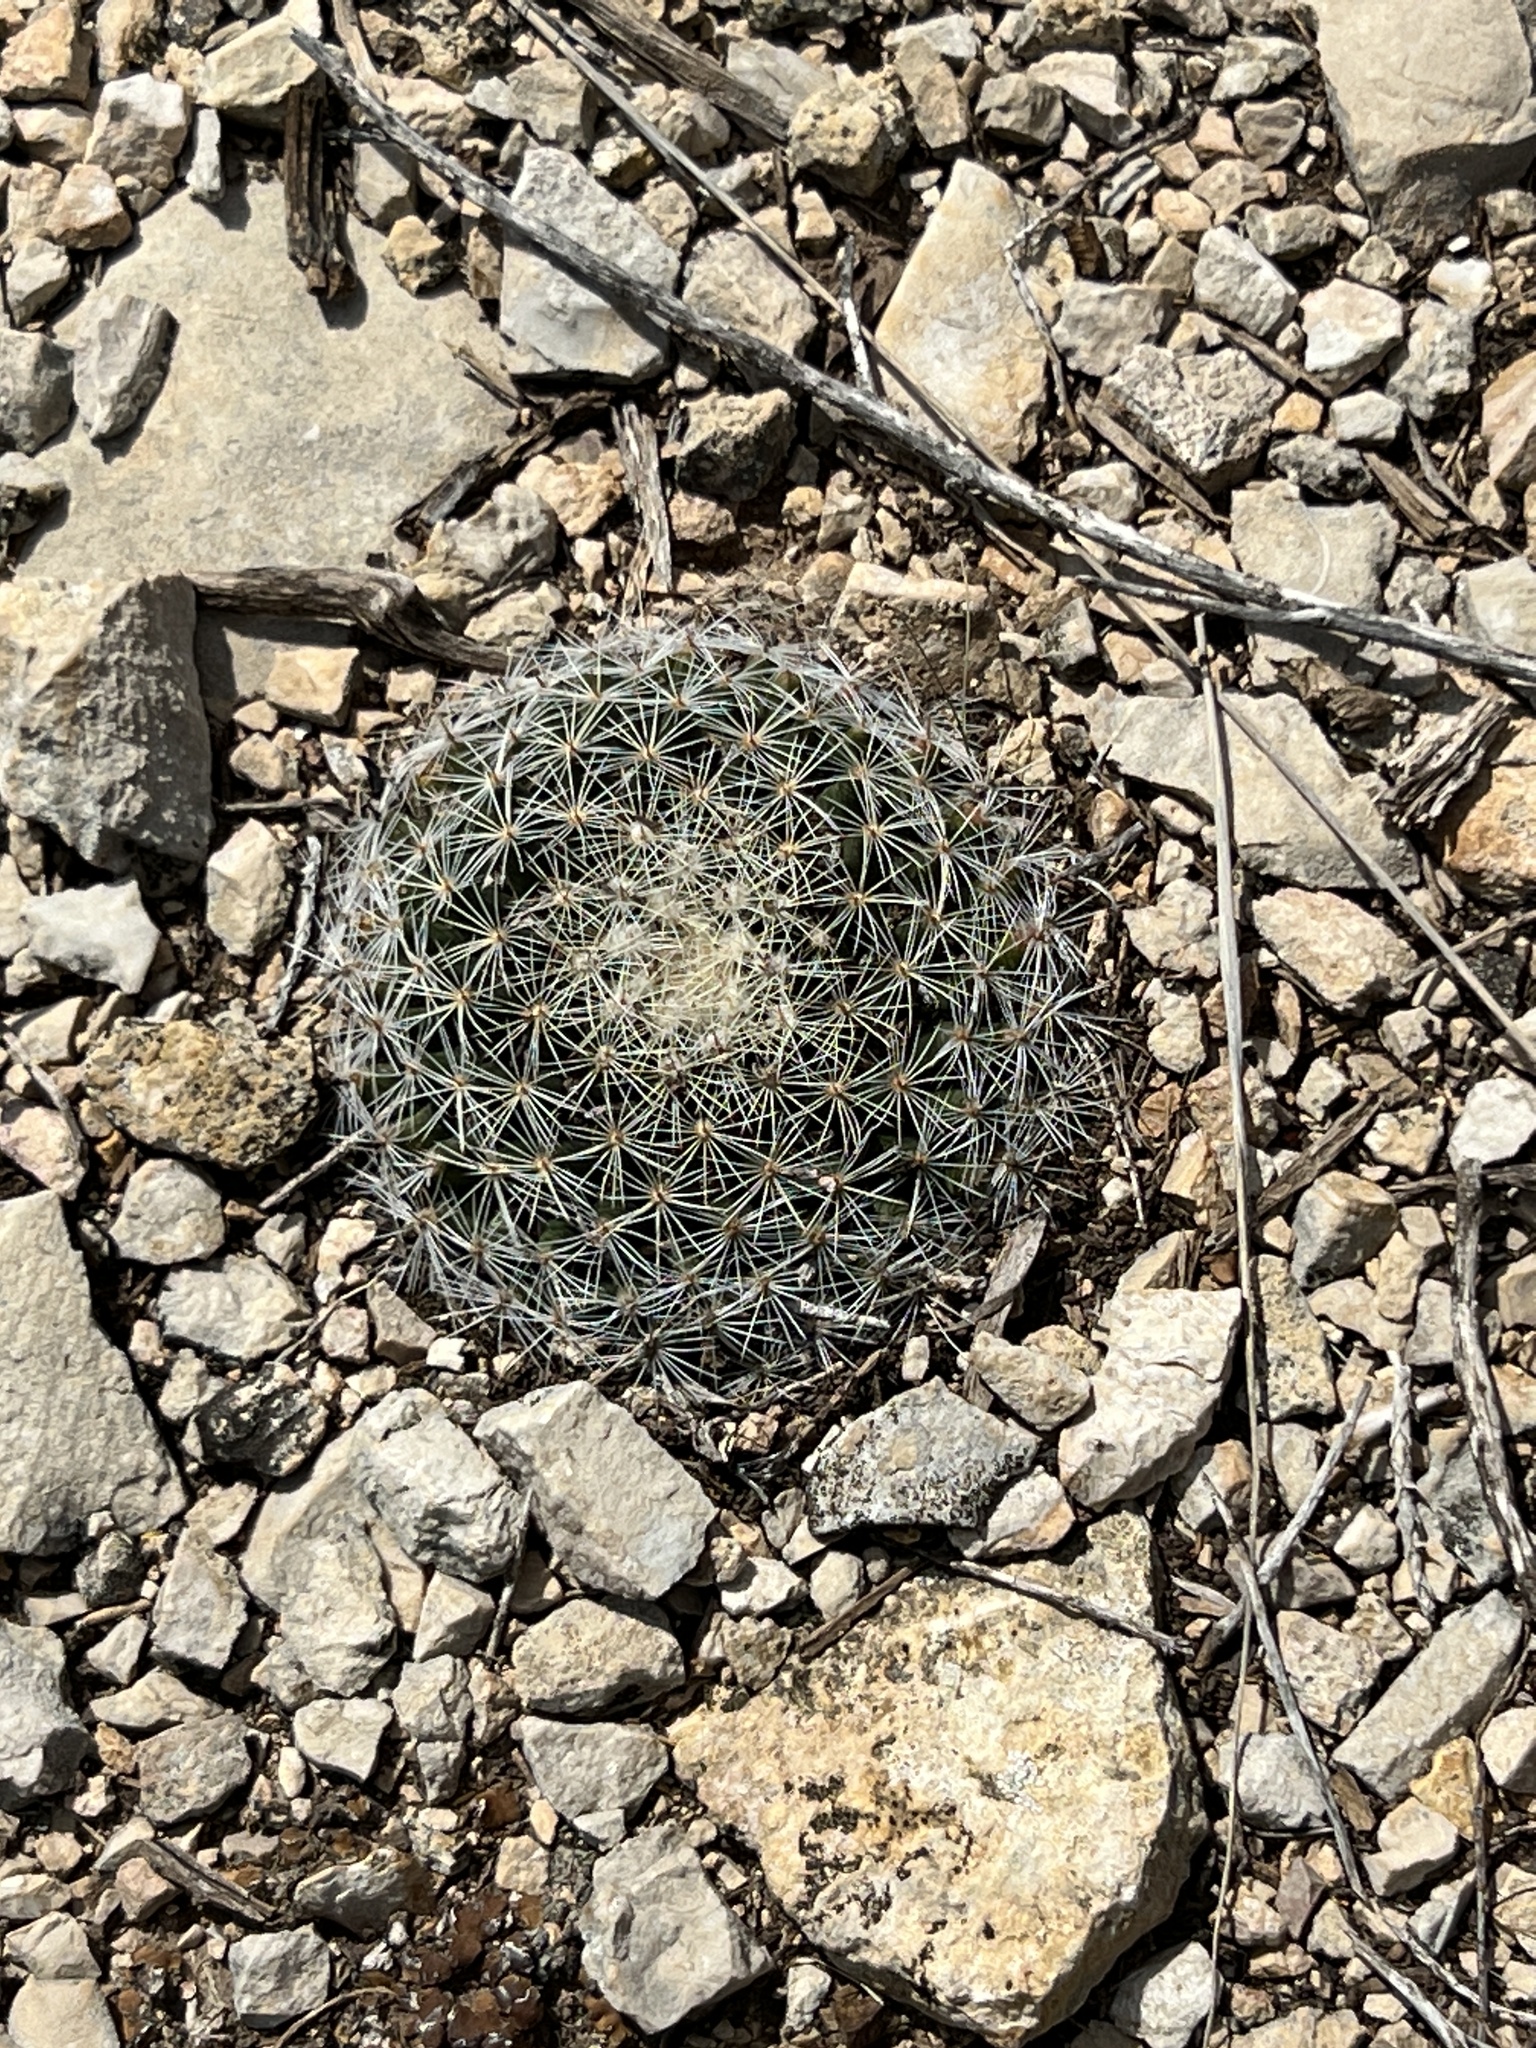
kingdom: Plantae
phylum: Tracheophyta
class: Magnoliopsida
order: Caryophyllales
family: Cactaceae
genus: Mammillaria
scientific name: Mammillaria heyderi
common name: Little nipple cactus
